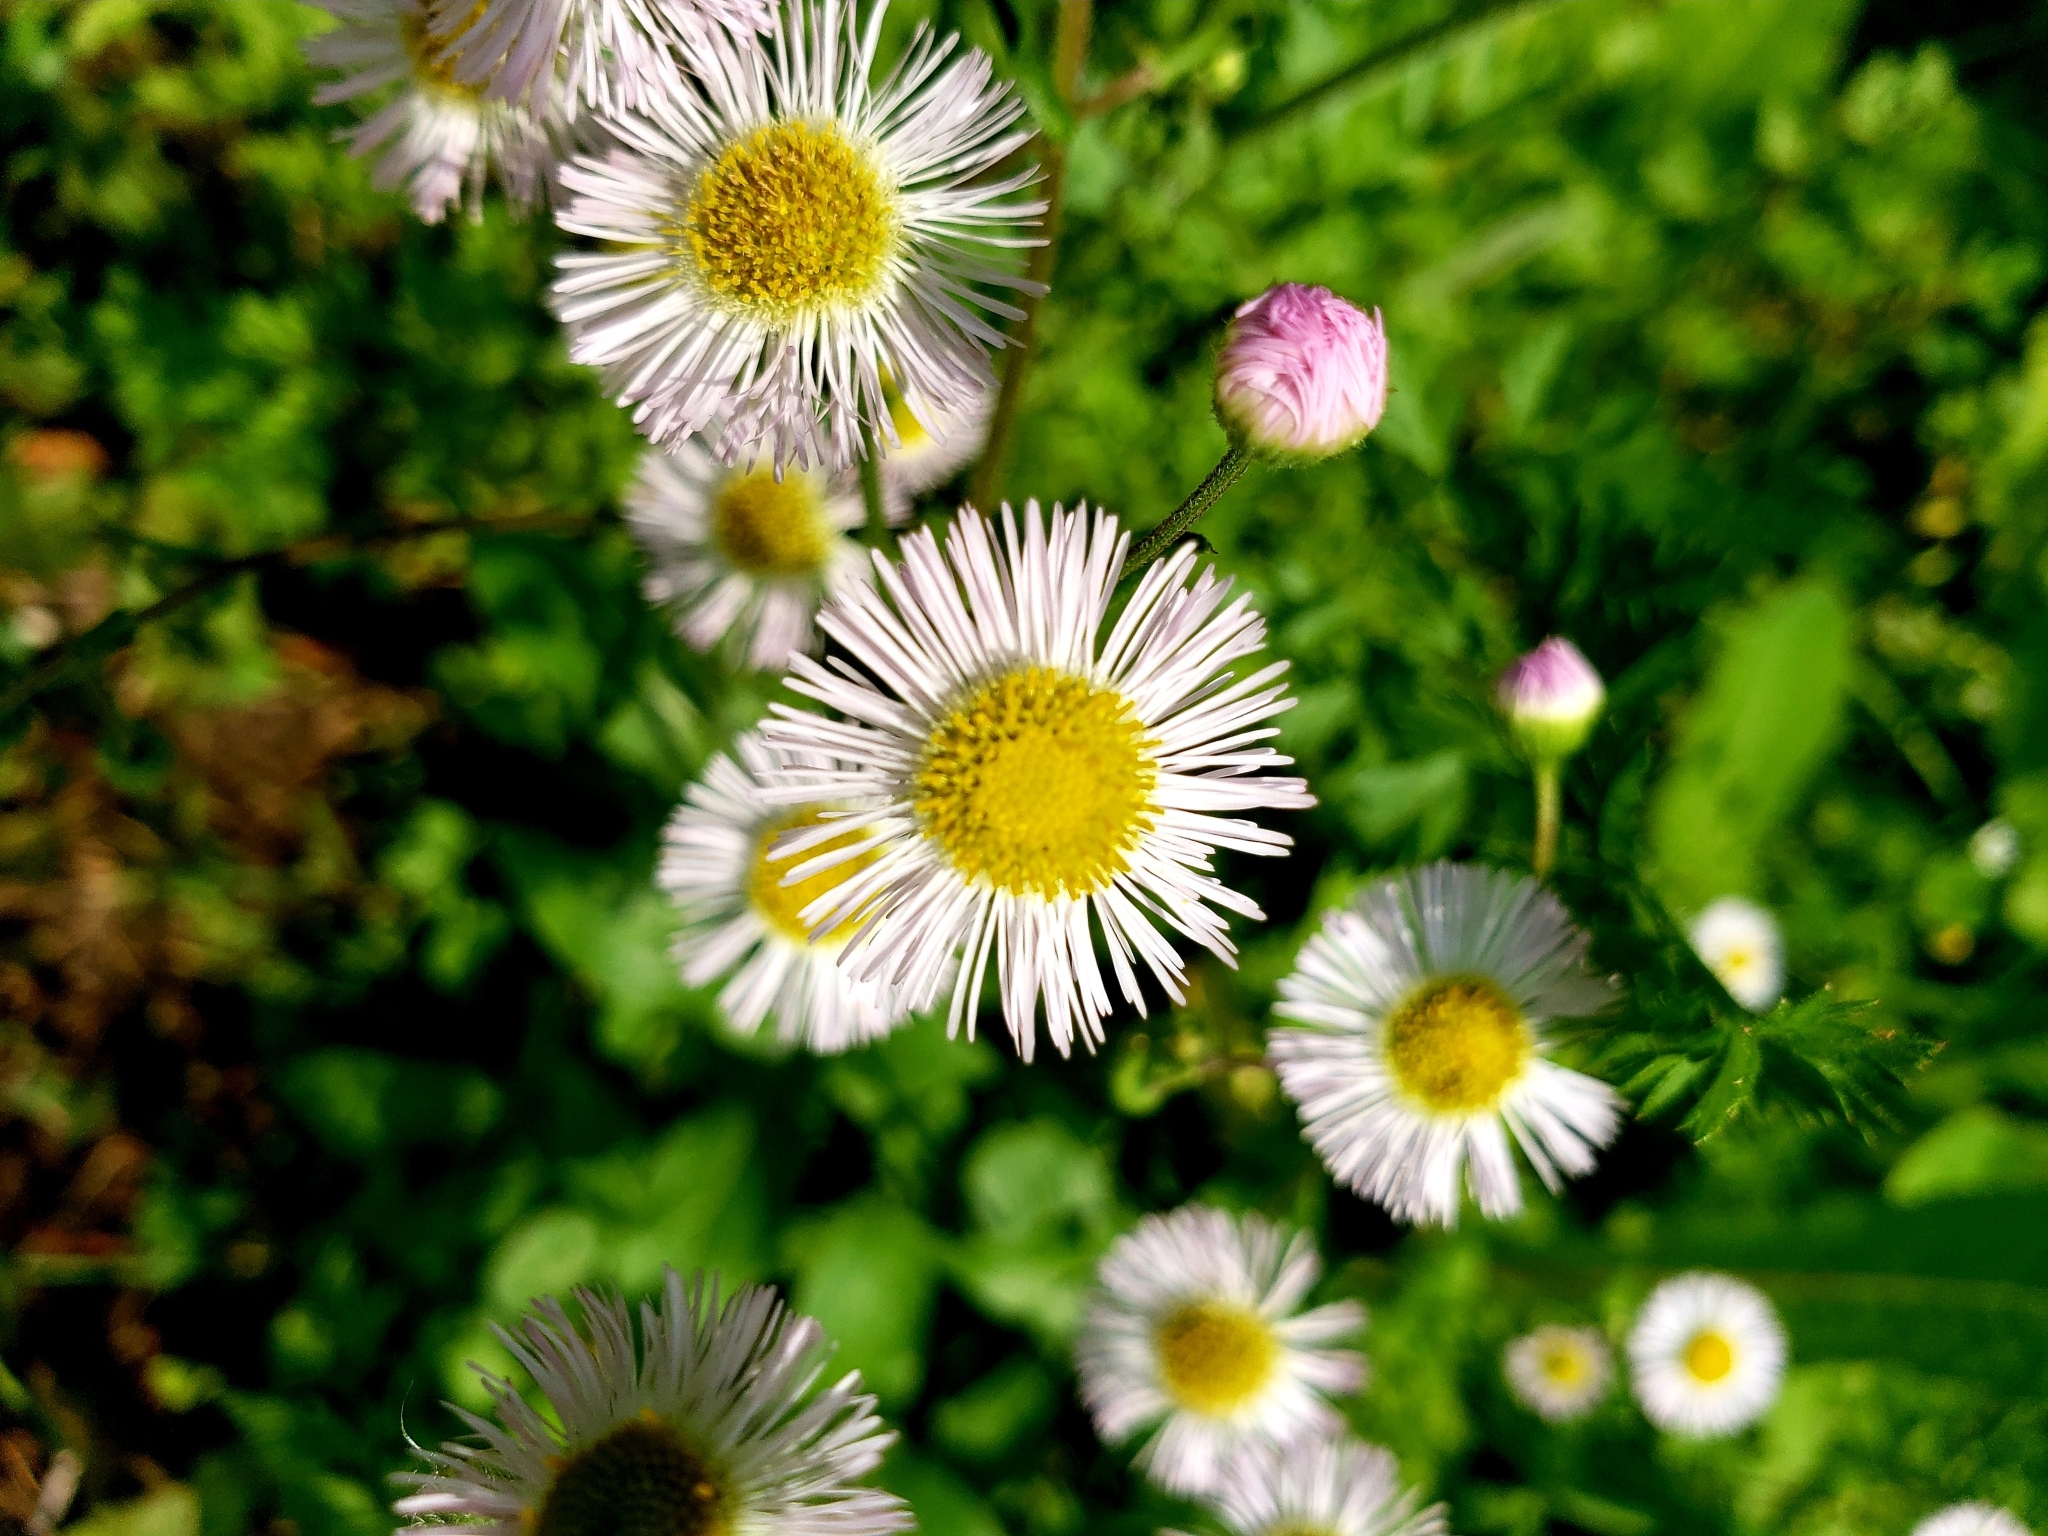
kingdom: Plantae
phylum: Tracheophyta
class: Magnoliopsida
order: Asterales
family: Asteraceae
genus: Erigeron
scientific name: Erigeron philadelphicus
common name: Robin's-plantain
